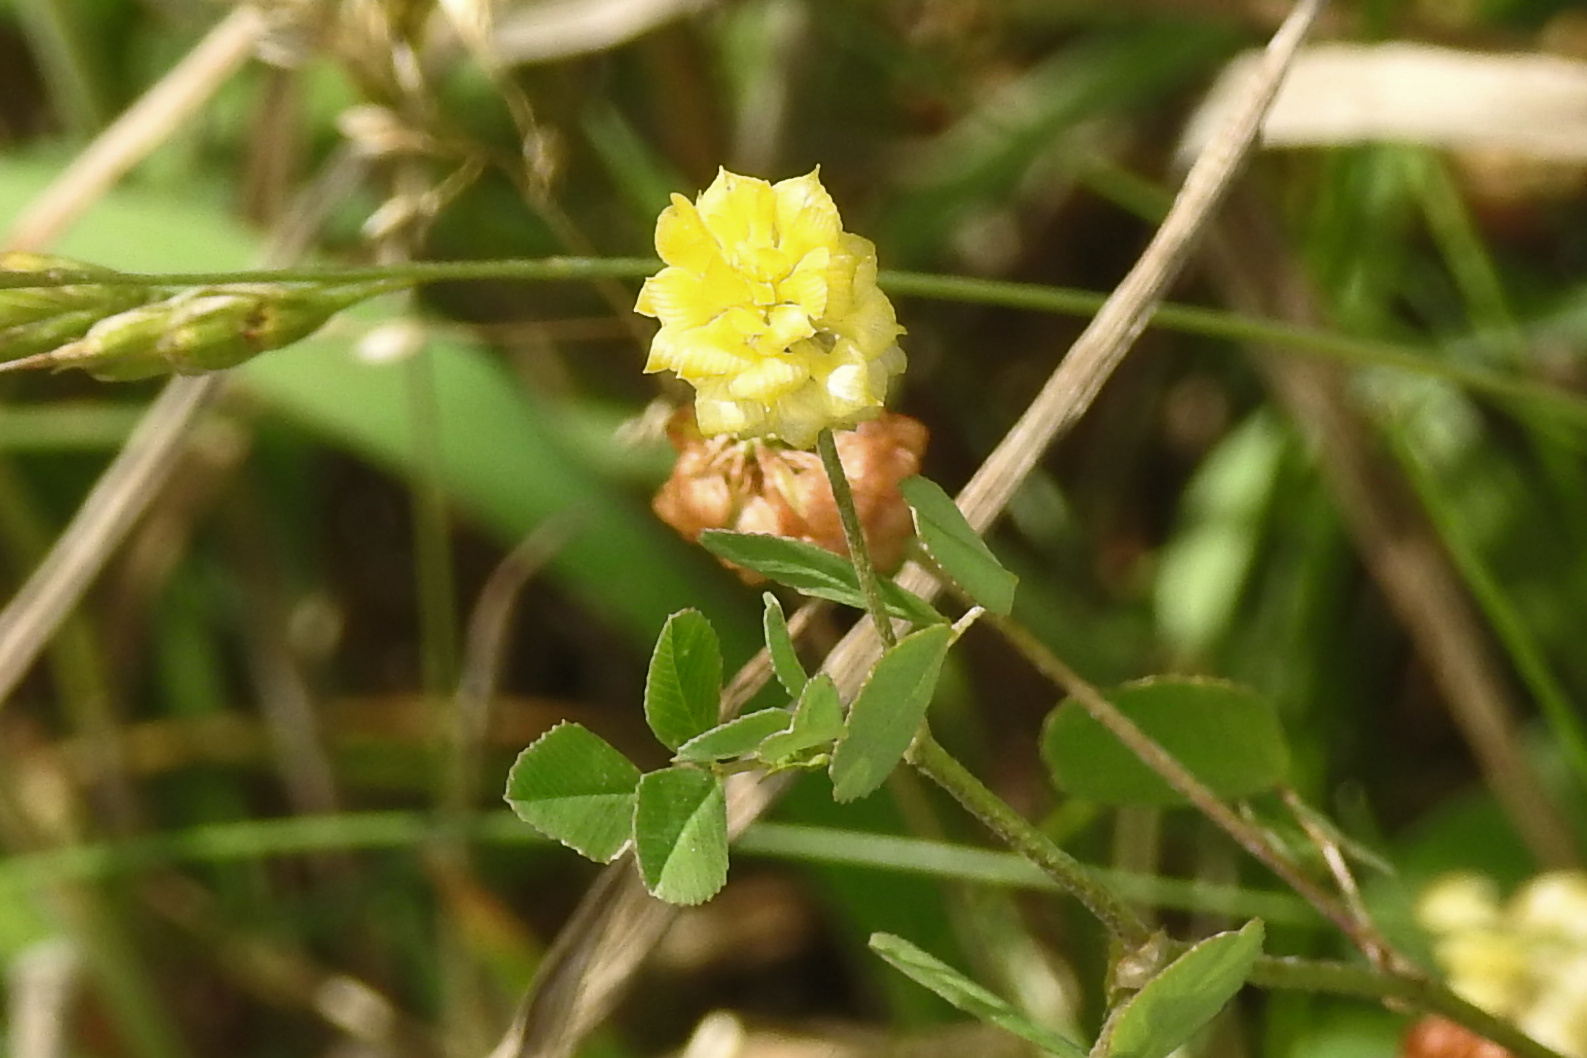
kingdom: Plantae
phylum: Tracheophyta
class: Magnoliopsida
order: Fabales
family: Fabaceae
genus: Trifolium
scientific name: Trifolium campestre
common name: Field clover
